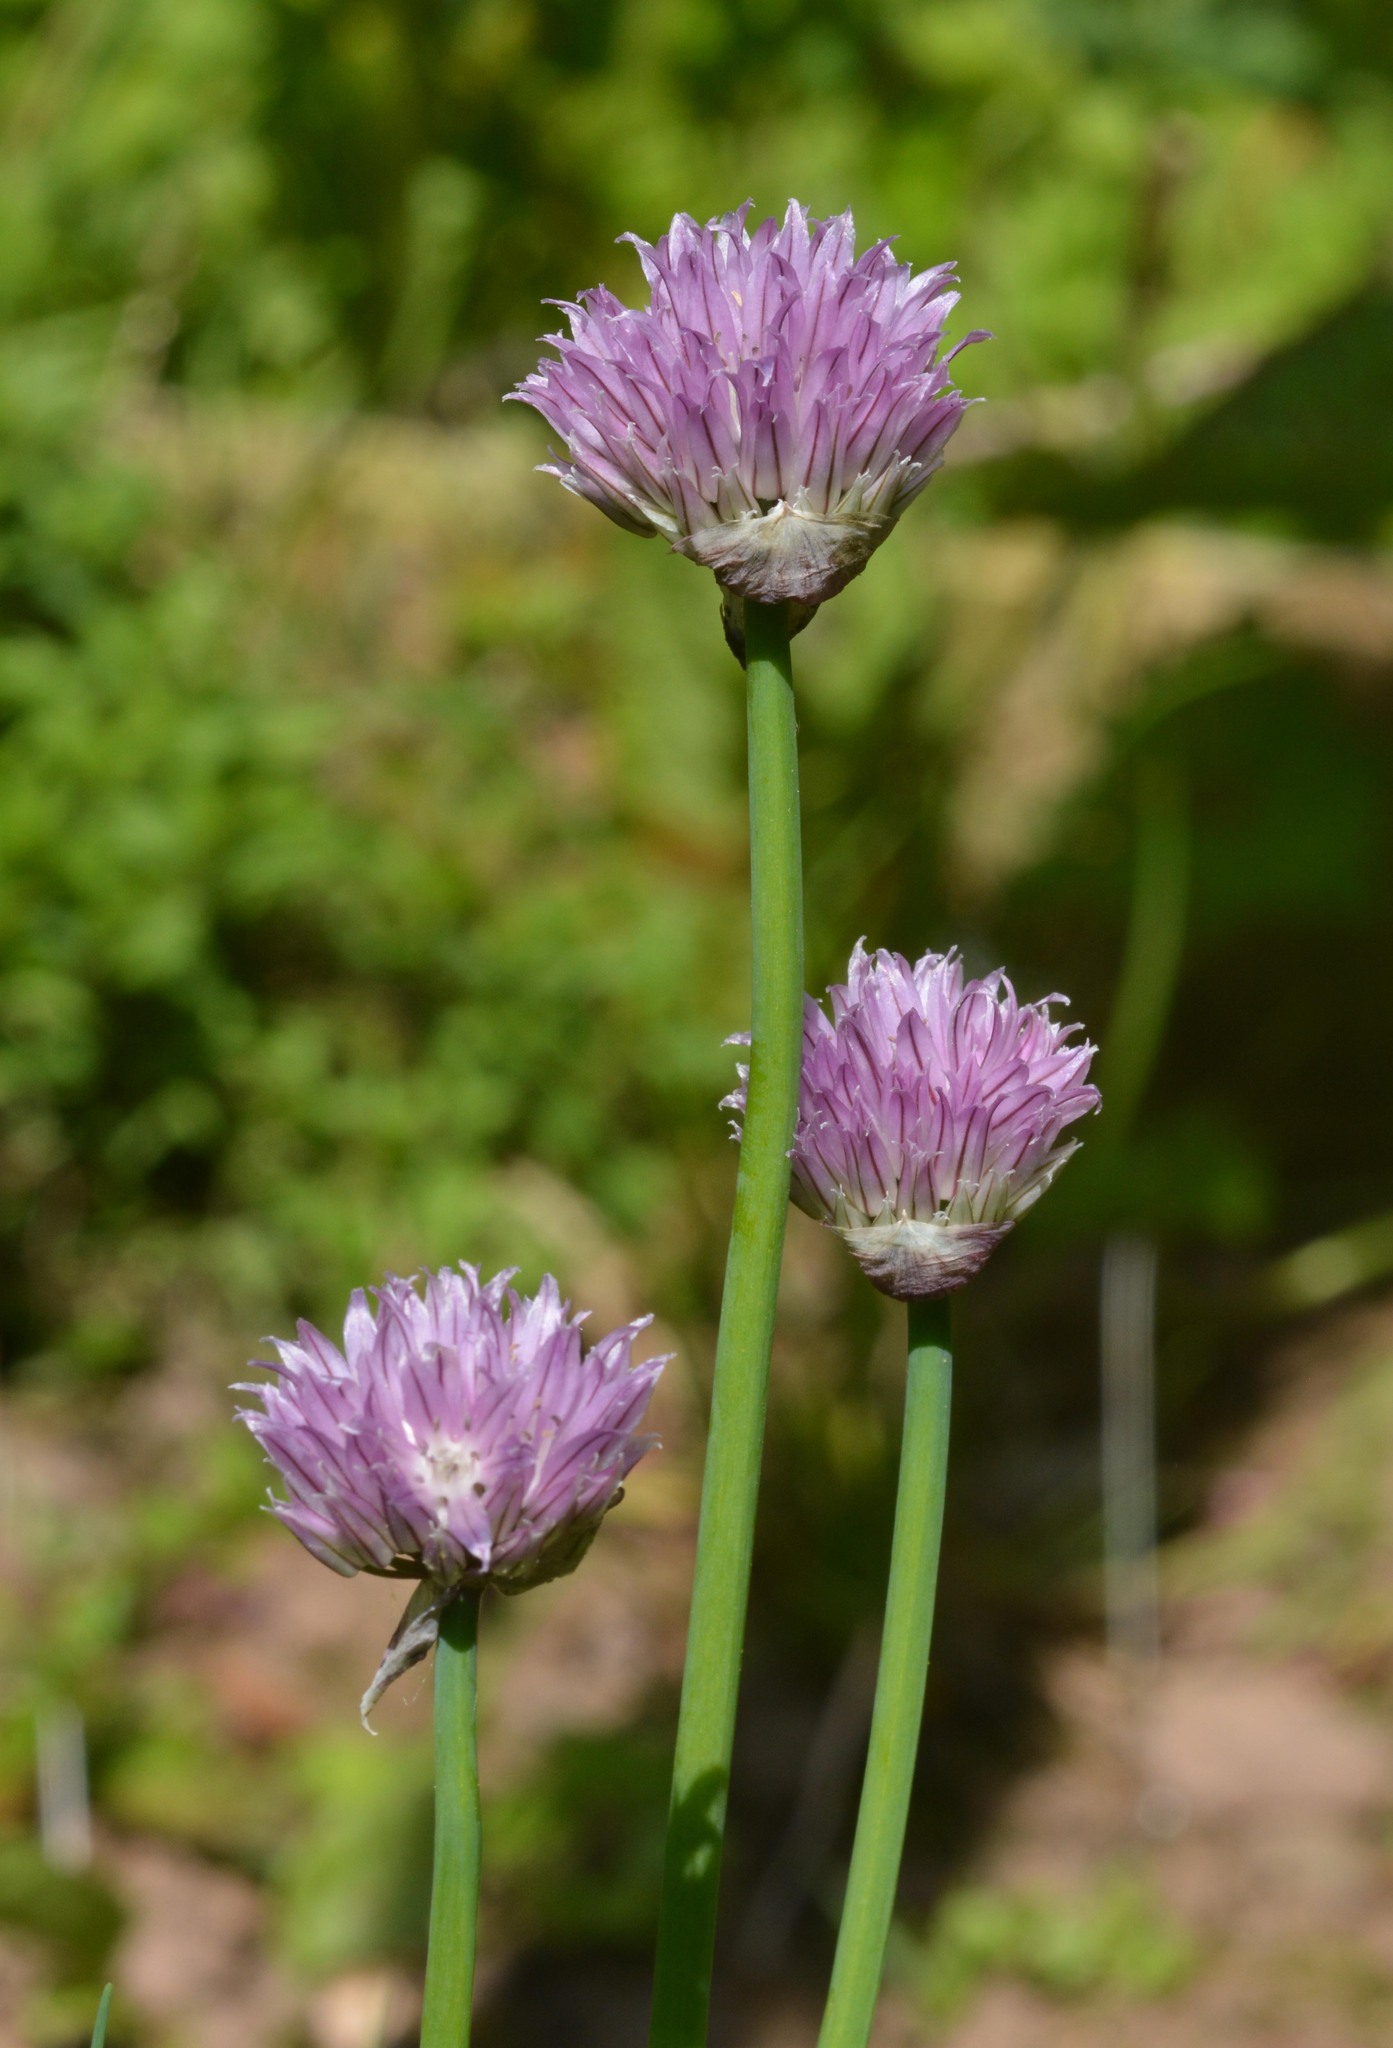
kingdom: Plantae
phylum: Tracheophyta
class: Liliopsida
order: Asparagales
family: Amaryllidaceae
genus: Allium
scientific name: Allium schoenoprasum
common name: Chives
